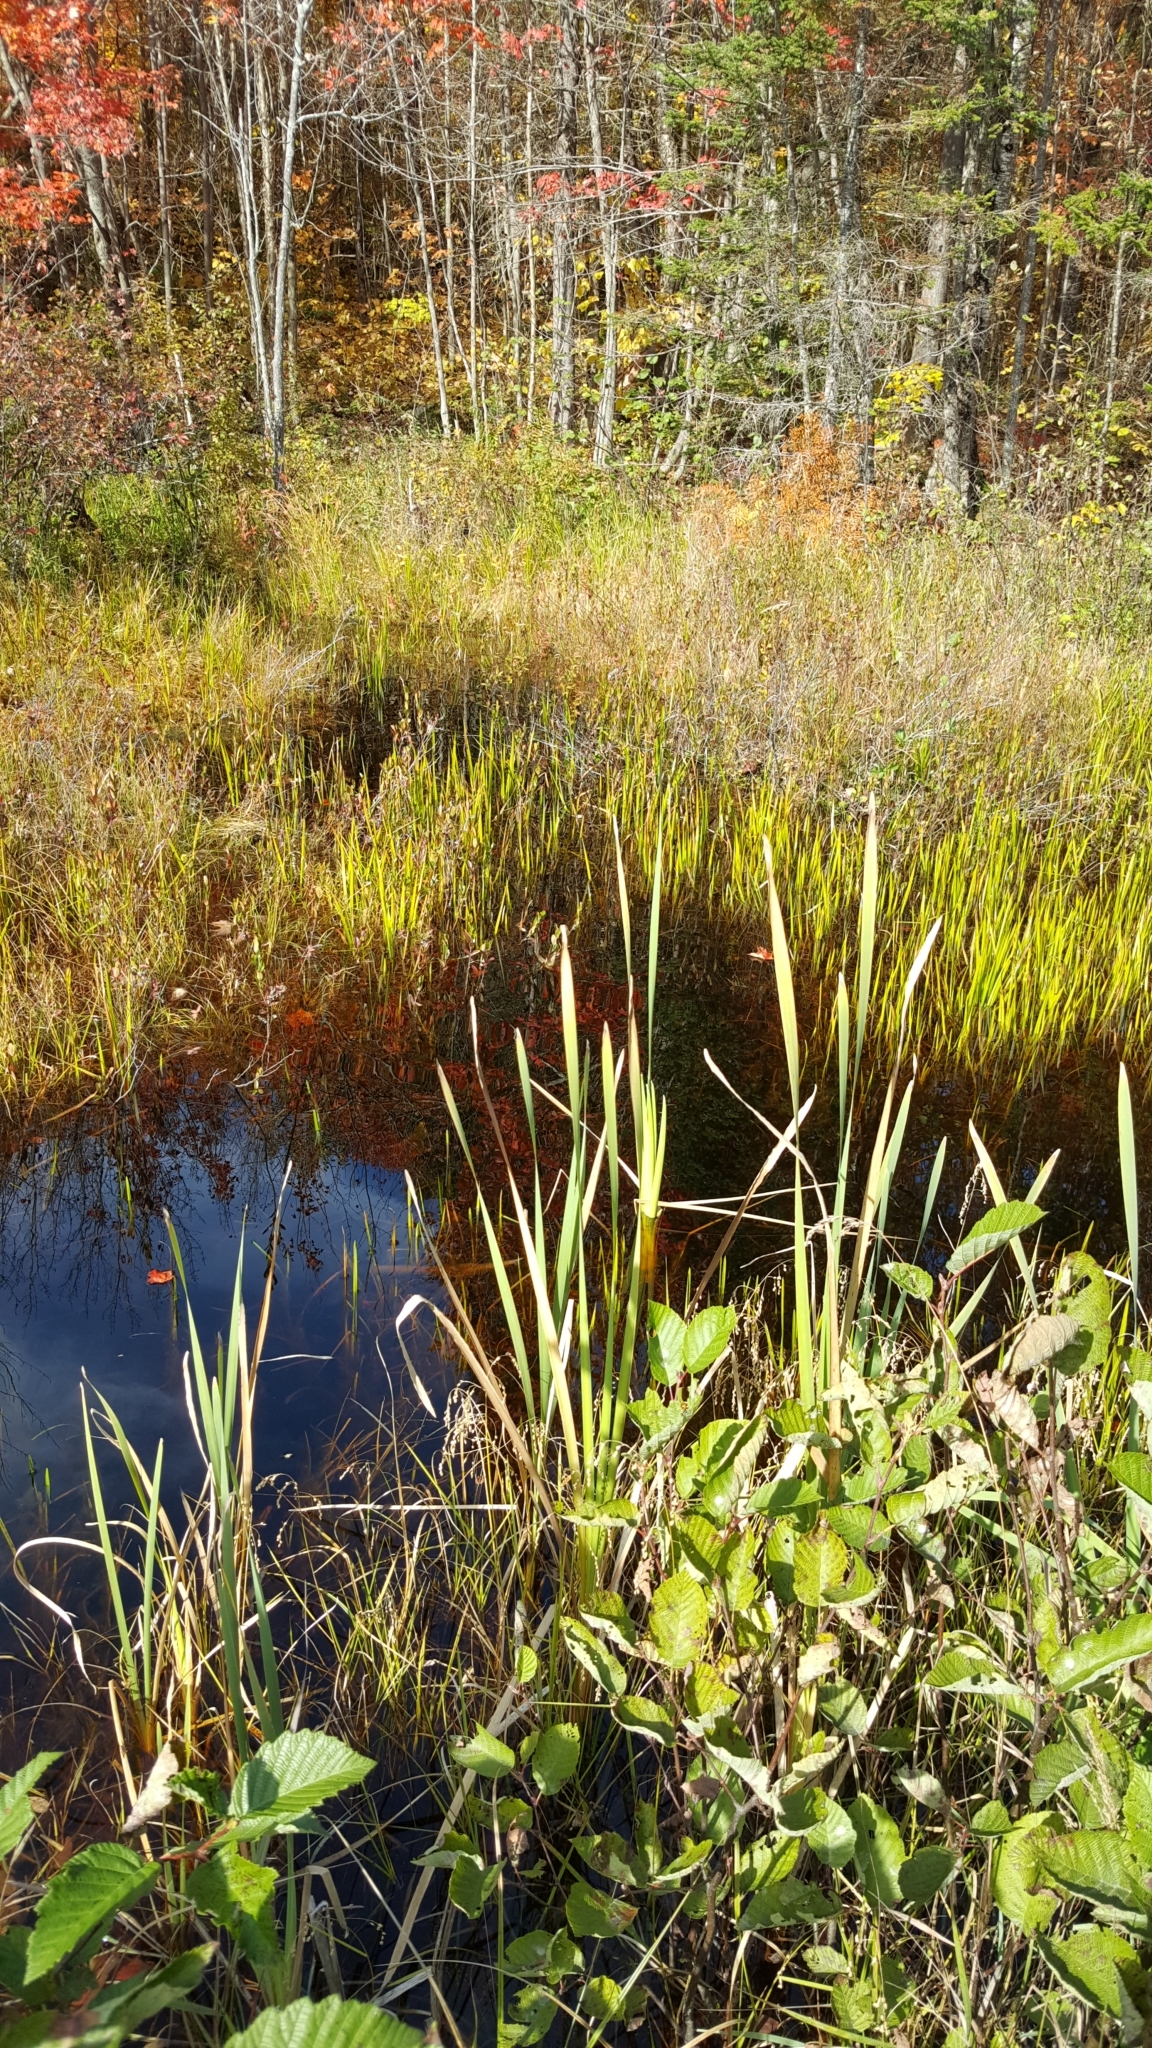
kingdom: Plantae
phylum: Tracheophyta
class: Liliopsida
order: Poales
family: Typhaceae
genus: Typha
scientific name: Typha latifolia
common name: Broadleaf cattail
